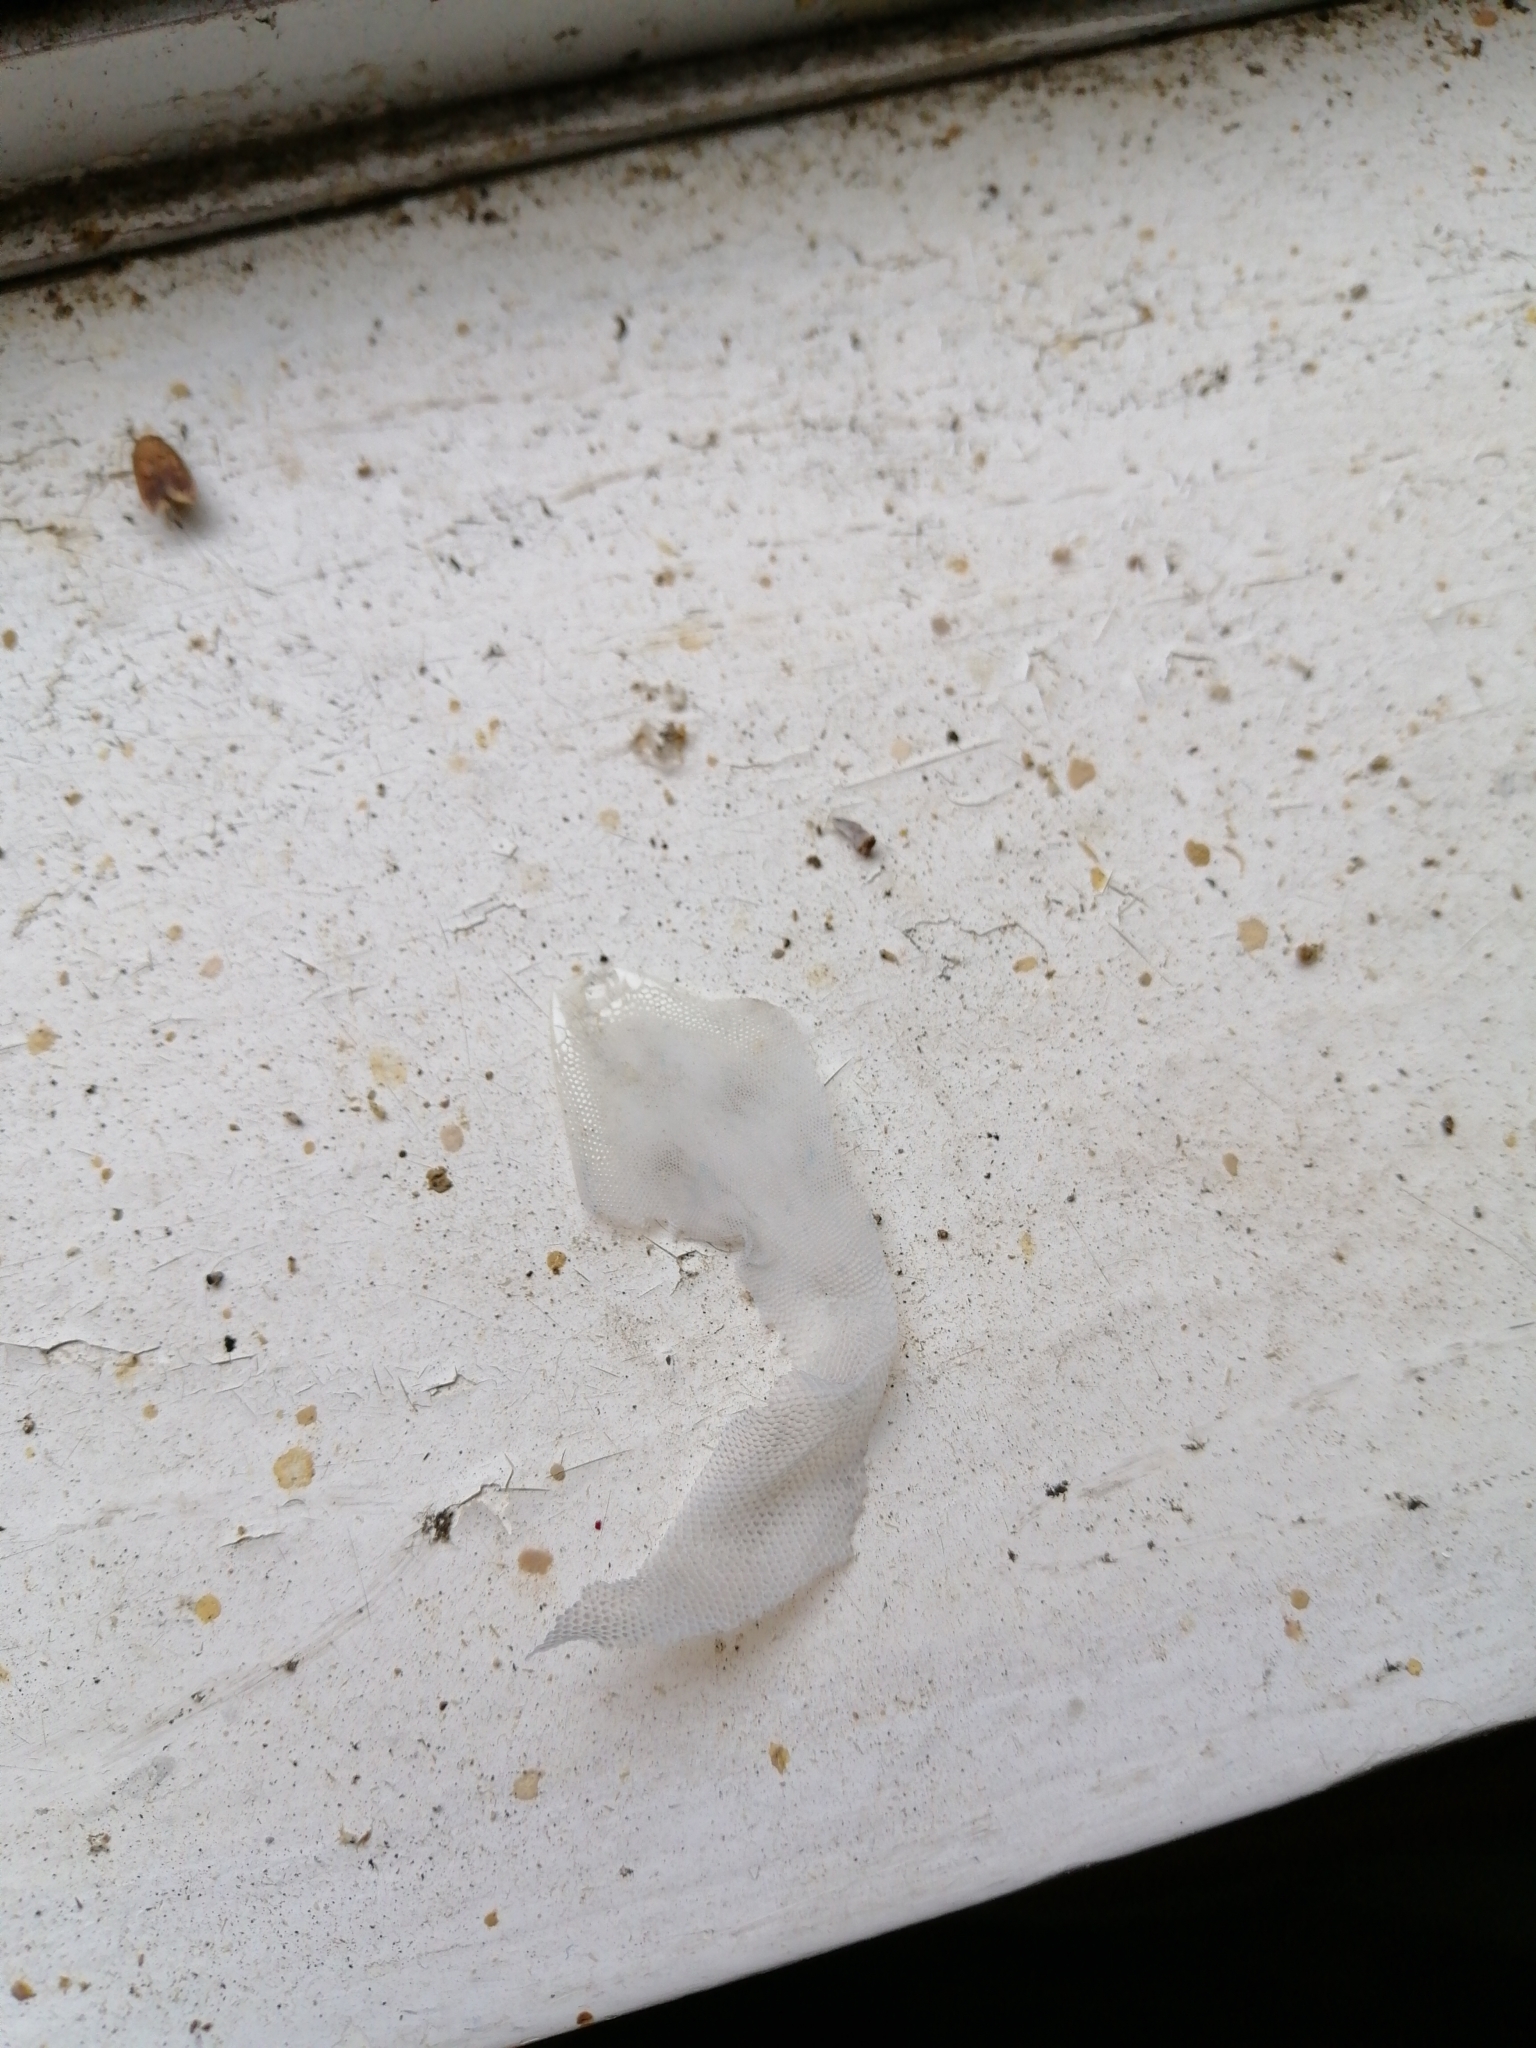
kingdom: Animalia
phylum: Chordata
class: Squamata
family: Diplodactylidae
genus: Woodworthia
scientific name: Woodworthia maculata
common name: Raukawa gecko
